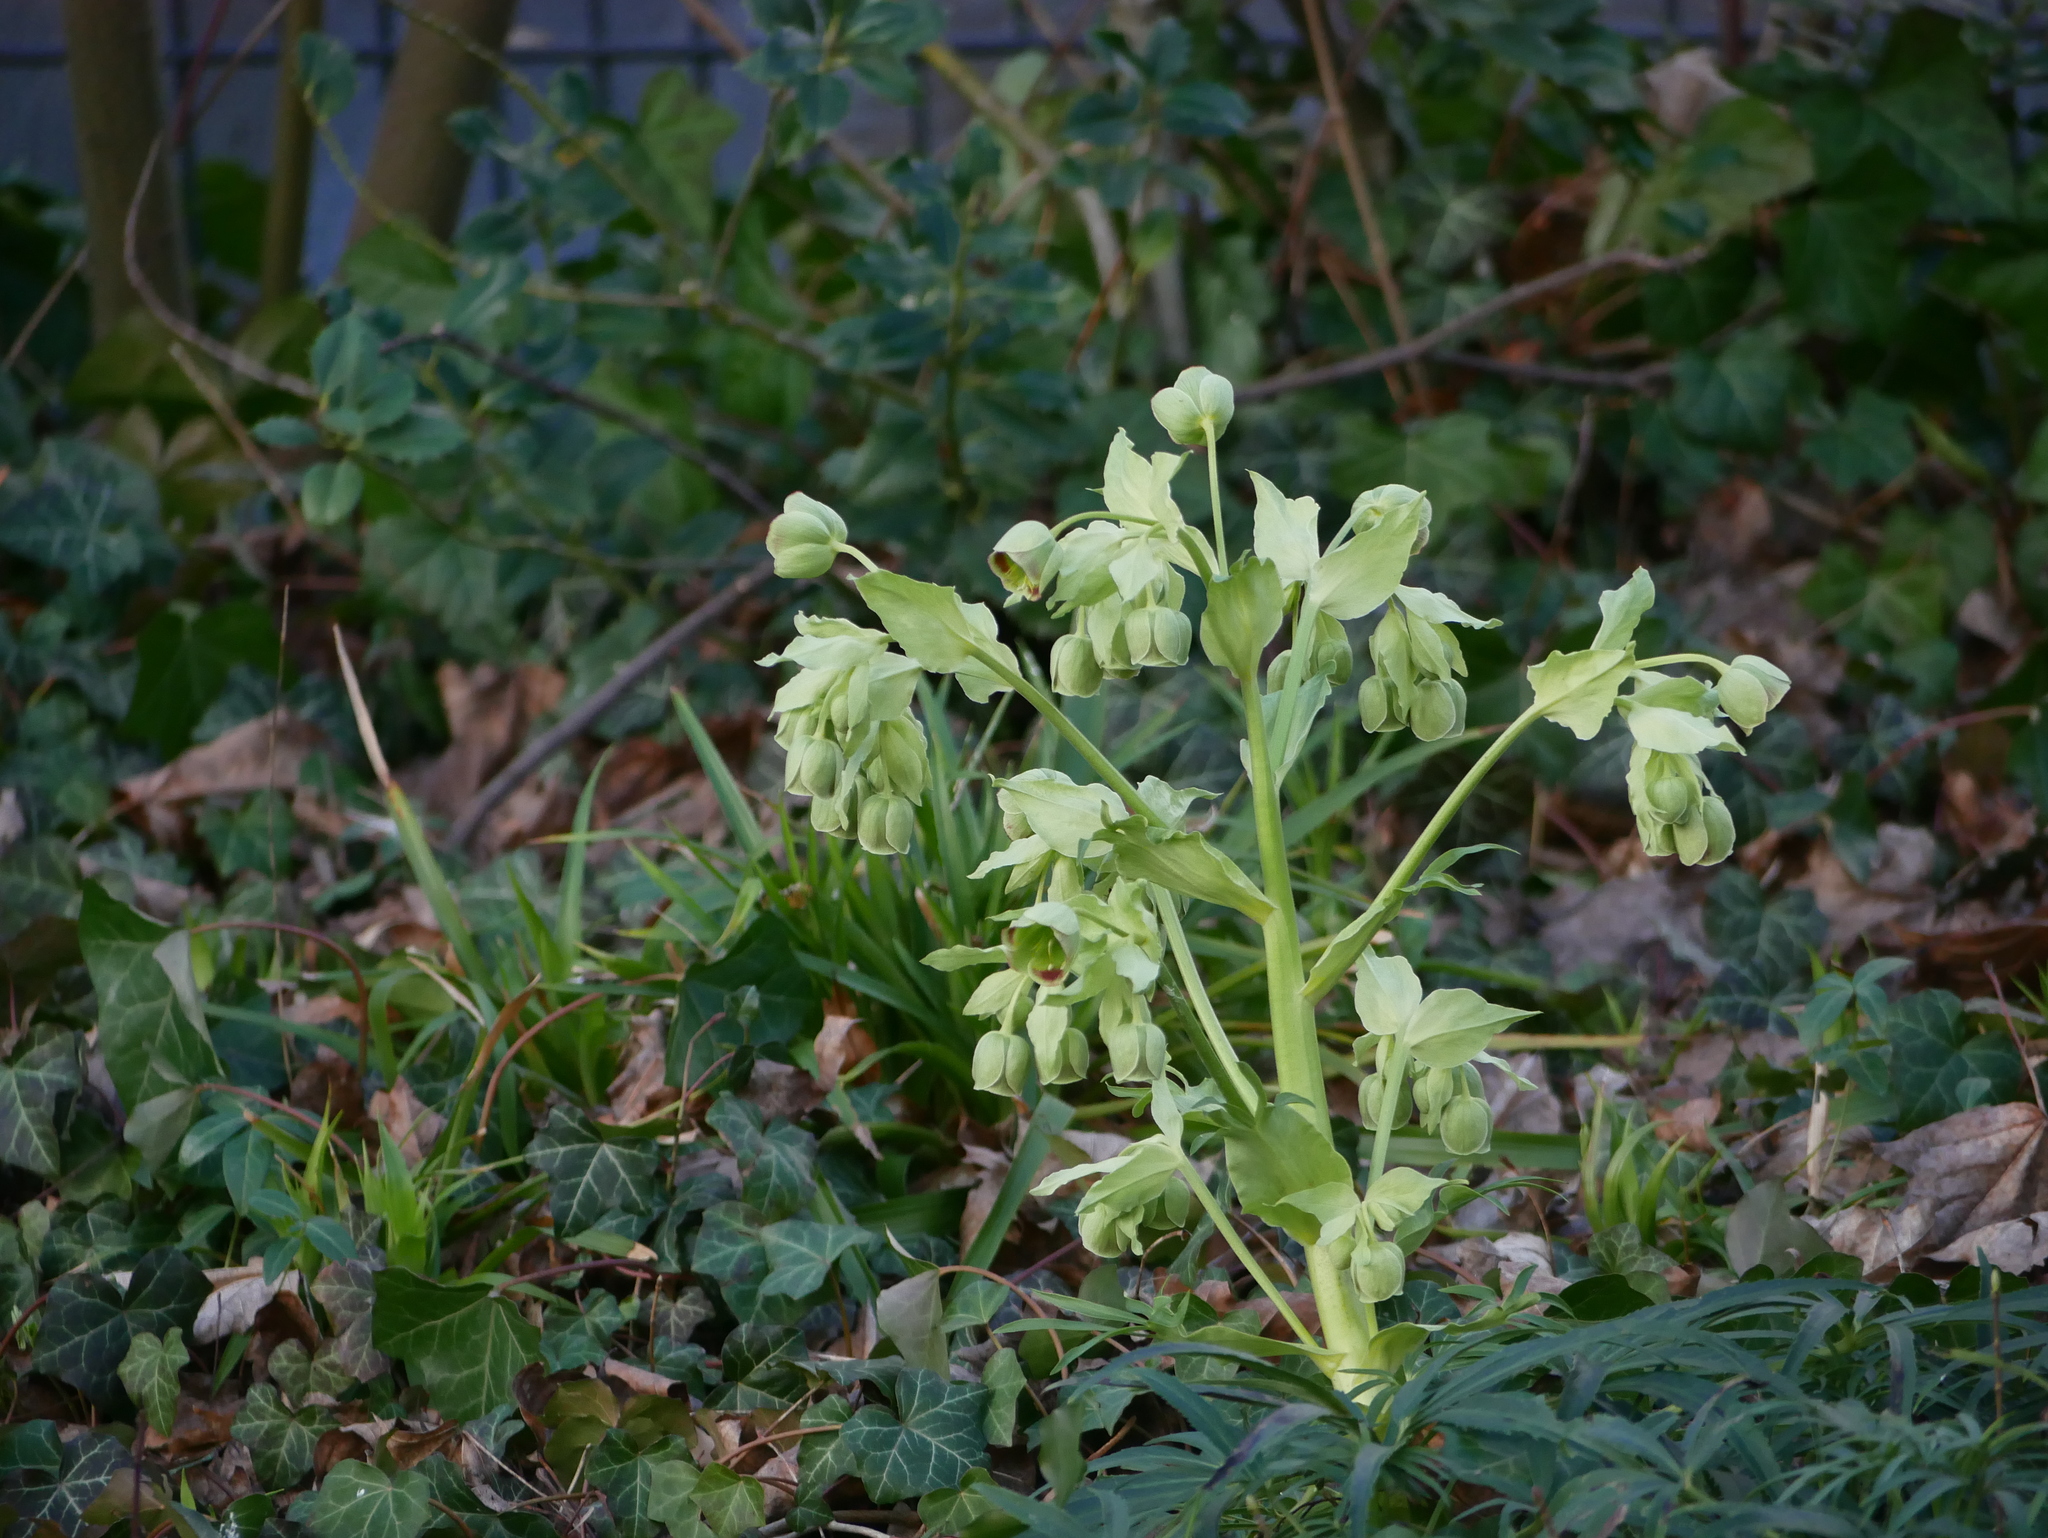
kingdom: Plantae
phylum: Tracheophyta
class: Magnoliopsida
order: Ranunculales
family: Ranunculaceae
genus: Helleborus
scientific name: Helleborus foetidus
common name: Stinking hellebore
